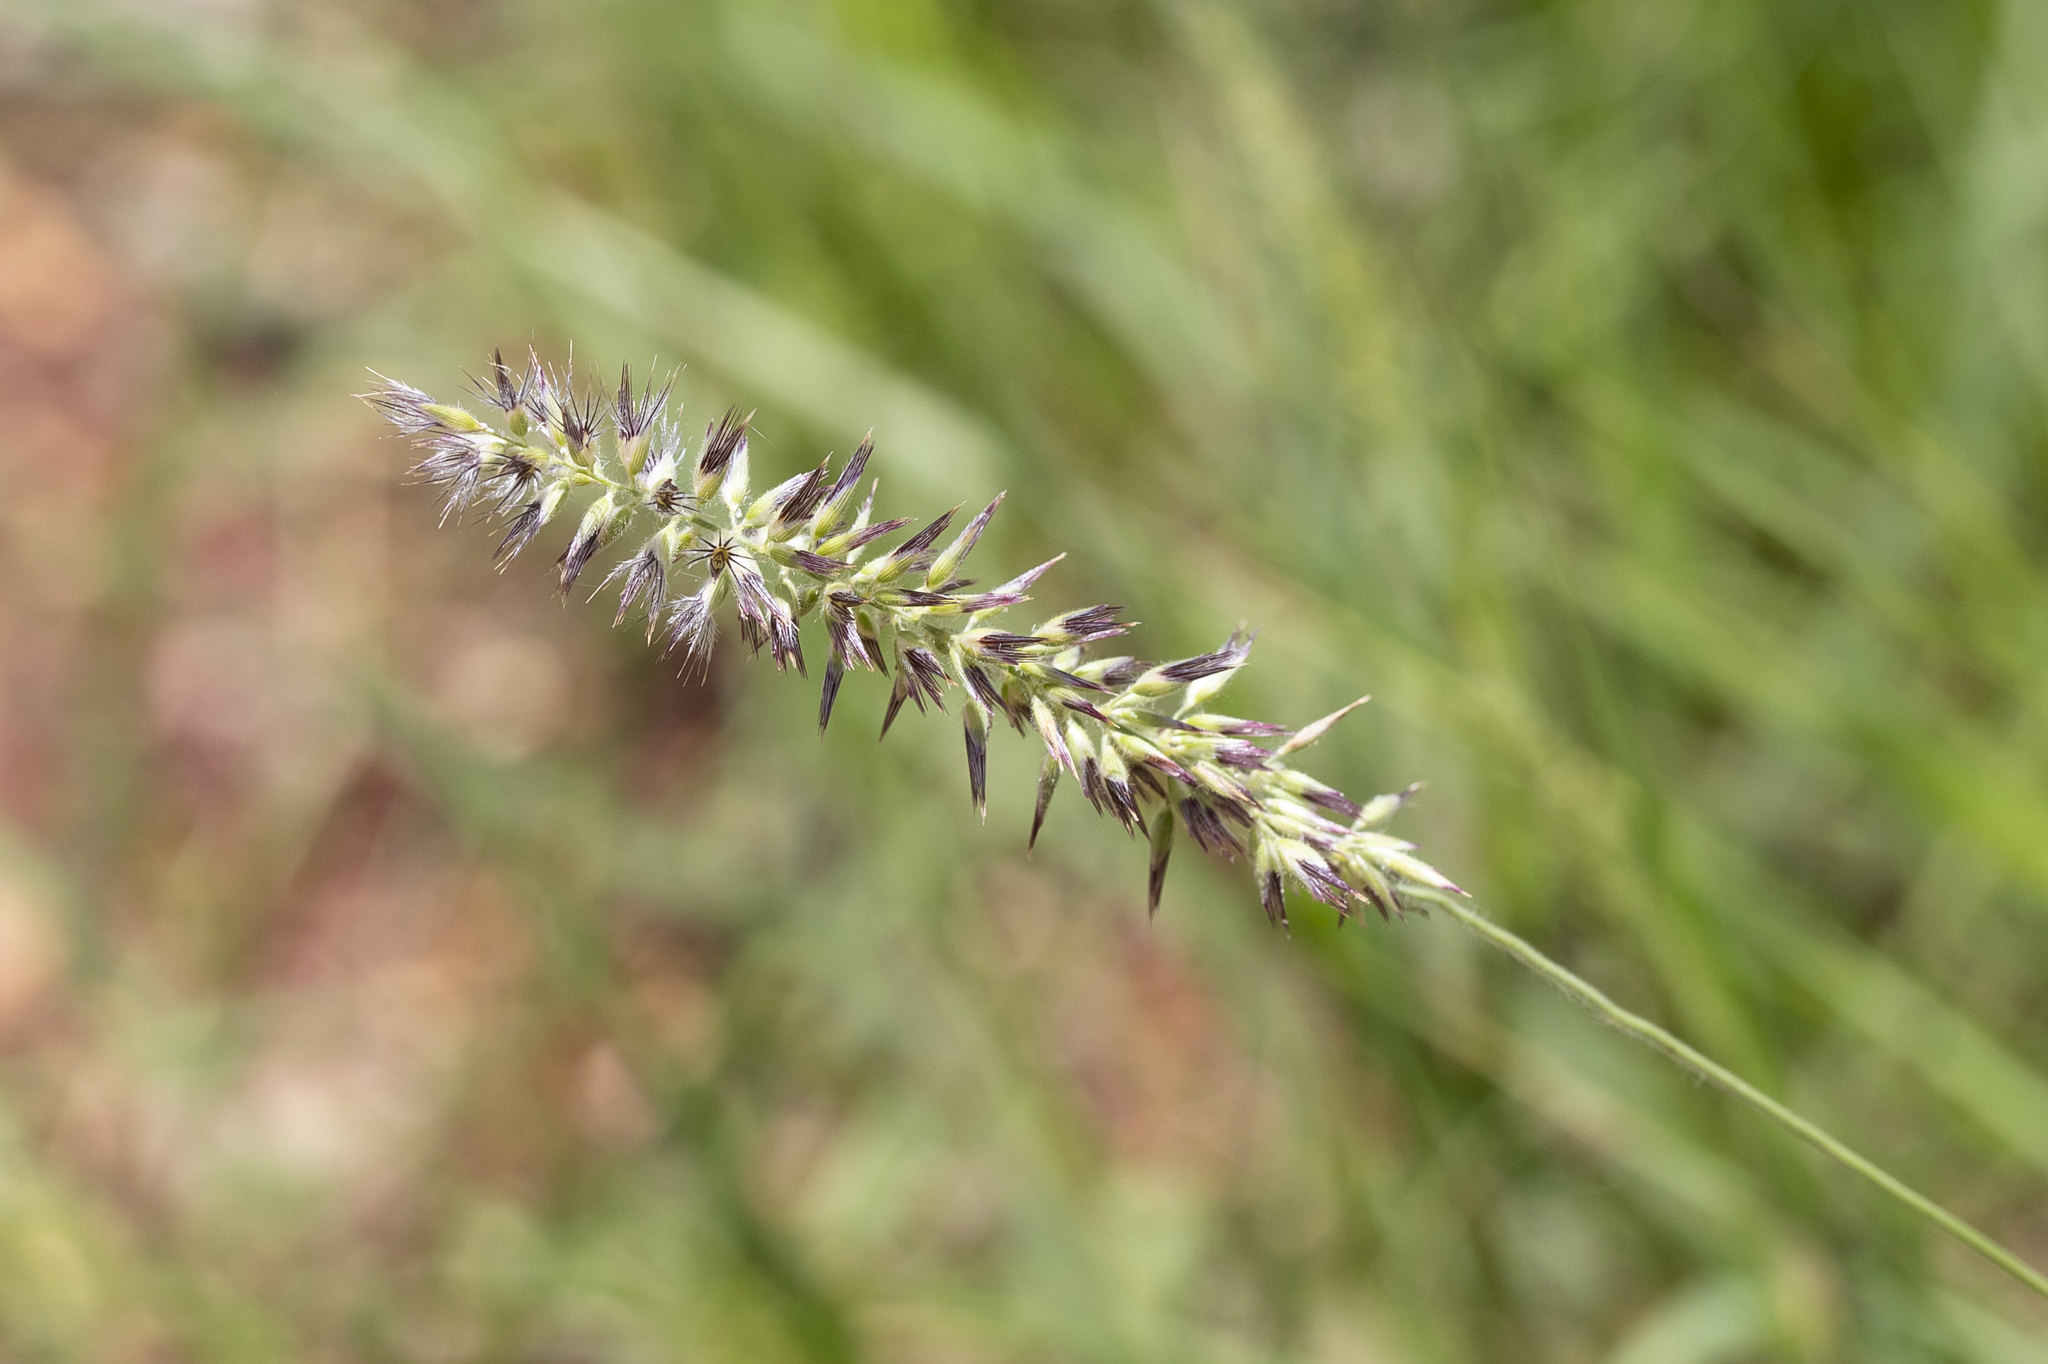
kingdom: Plantae
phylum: Tracheophyta
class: Liliopsida
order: Poales
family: Poaceae
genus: Enneapogon
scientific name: Enneapogon purpurascens
